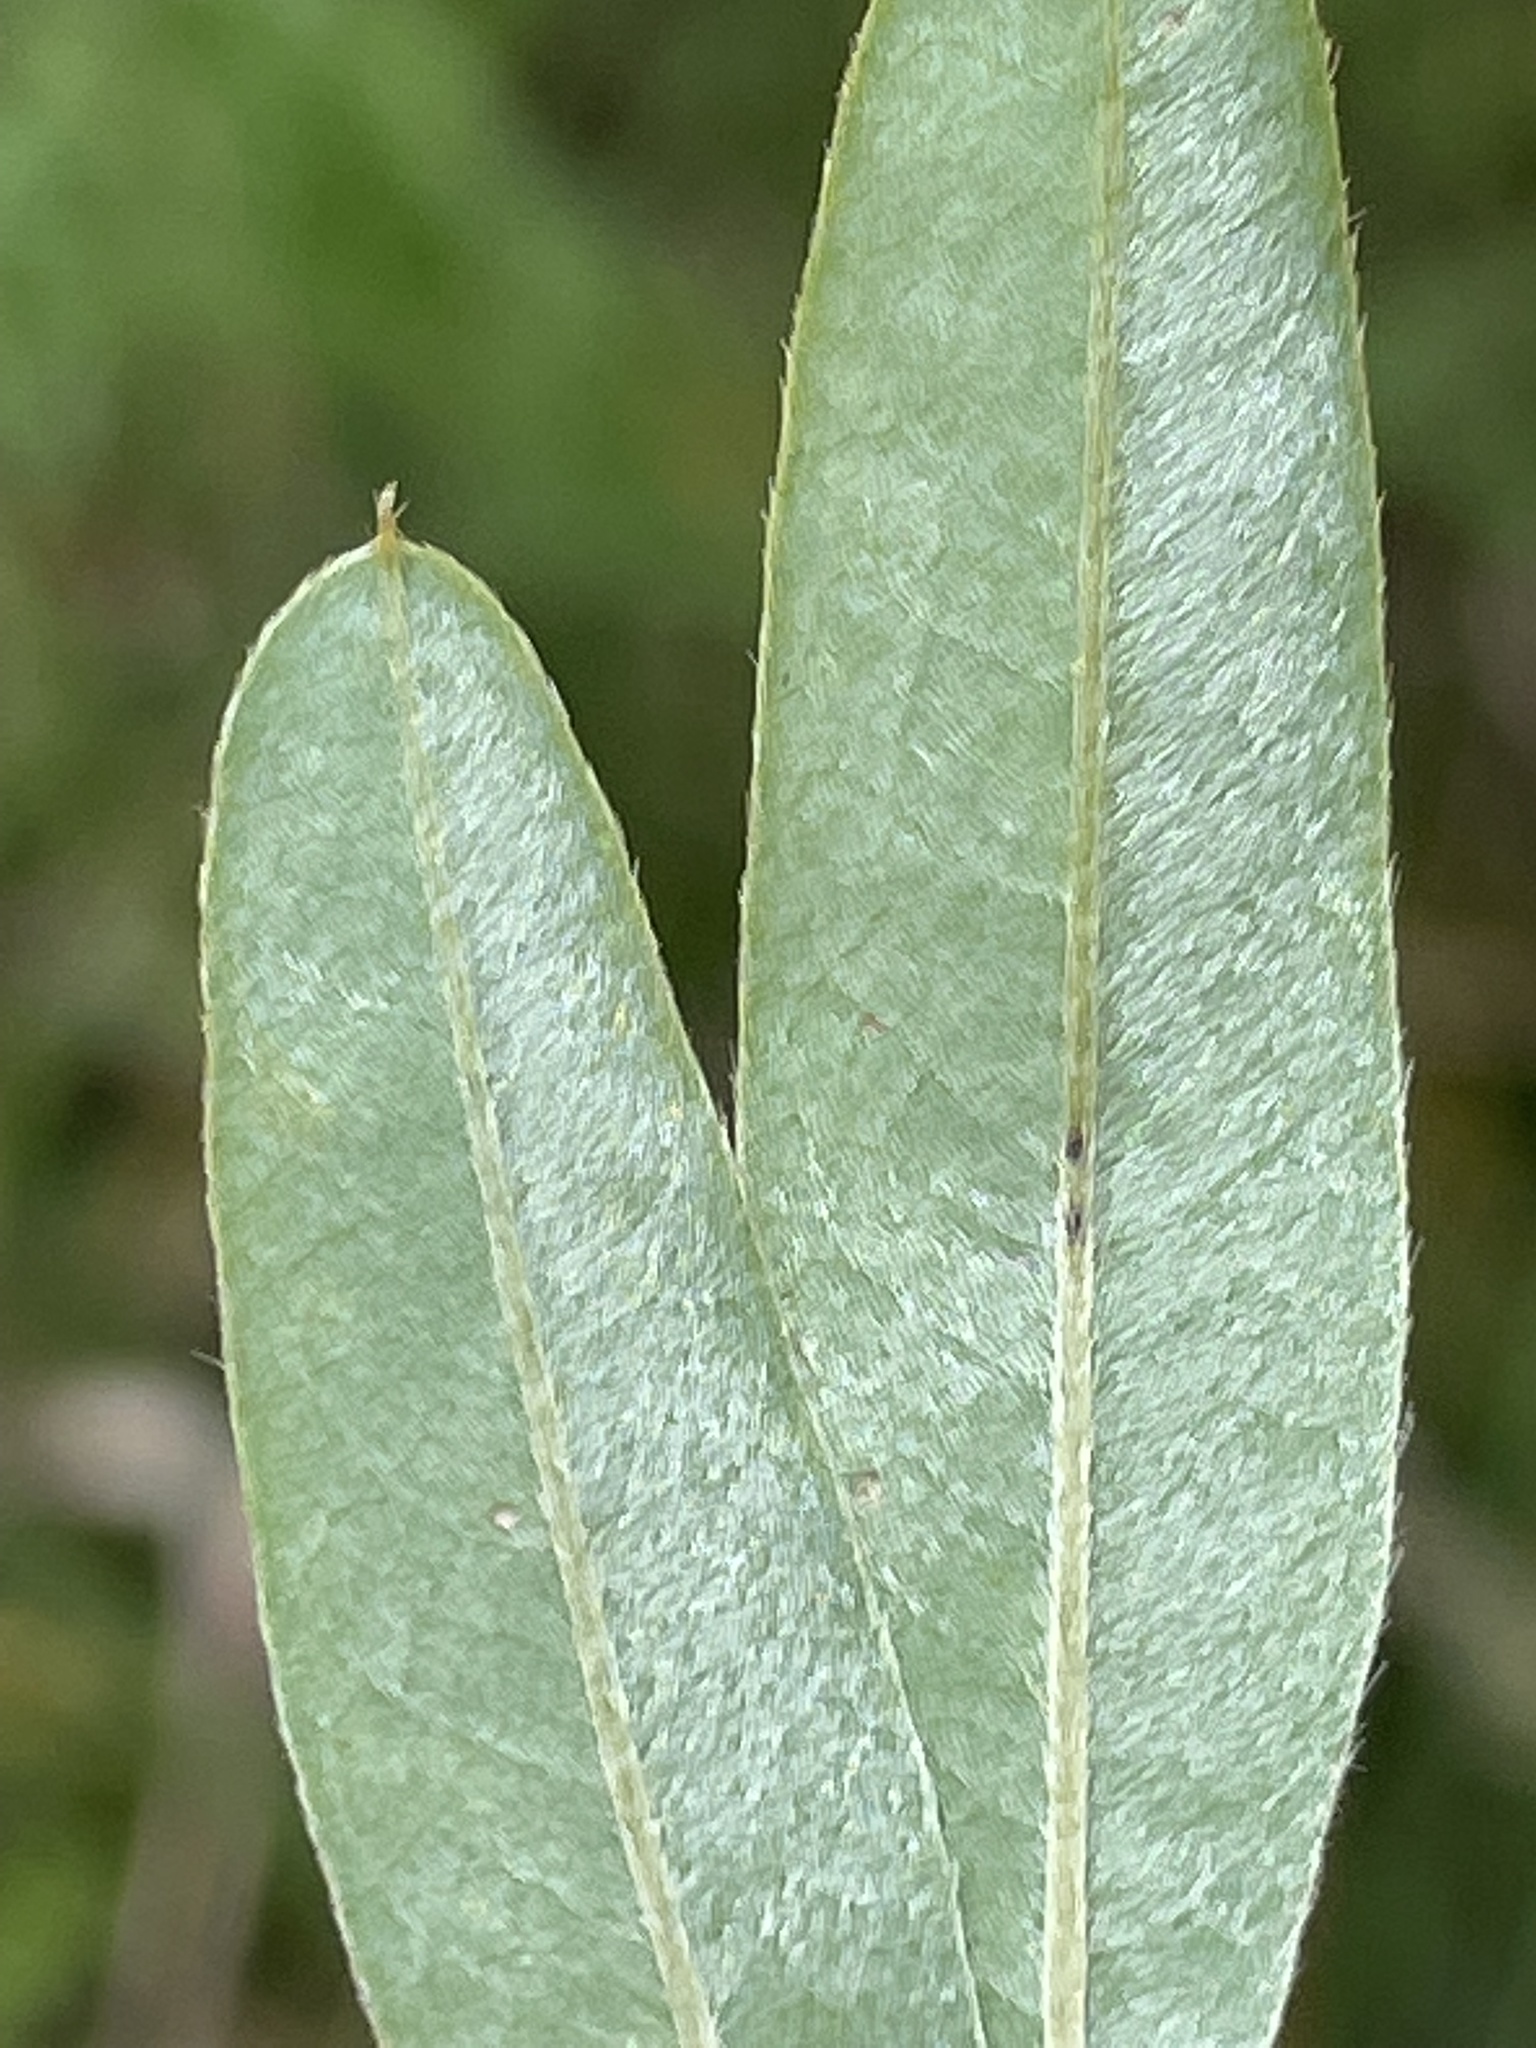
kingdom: Plantae
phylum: Tracheophyta
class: Magnoliopsida
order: Fabales
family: Fabaceae
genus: Lespedeza
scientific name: Lespedeza capitata
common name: Dusty clover
